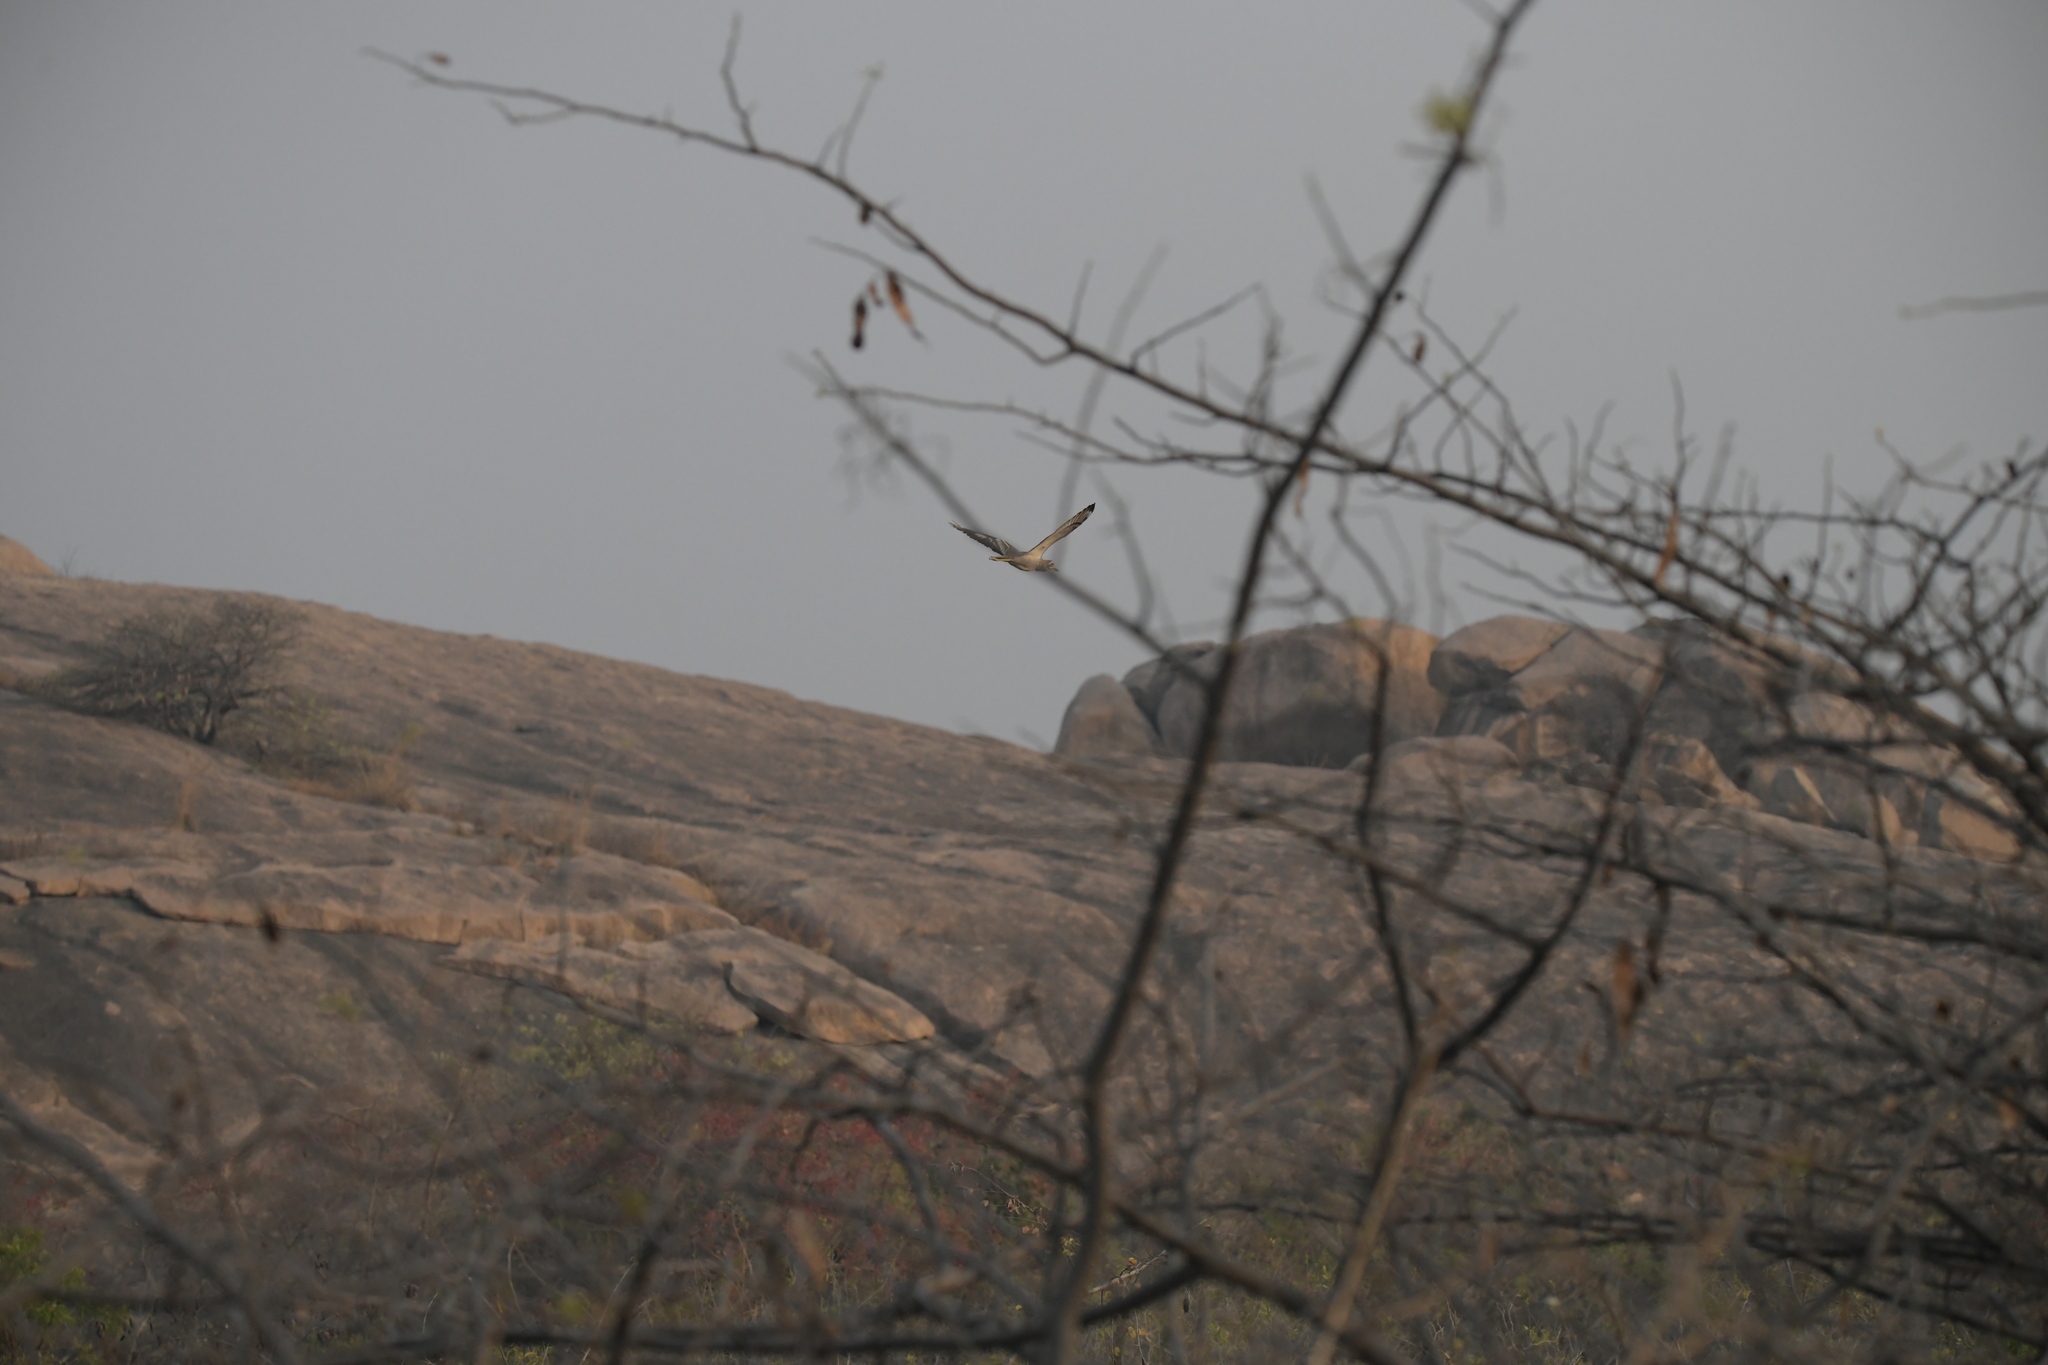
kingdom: Animalia
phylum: Chordata
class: Aves
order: Charadriiformes
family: Burhinidae
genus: Burhinus
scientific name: Burhinus indicus
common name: Indian thick-knee
